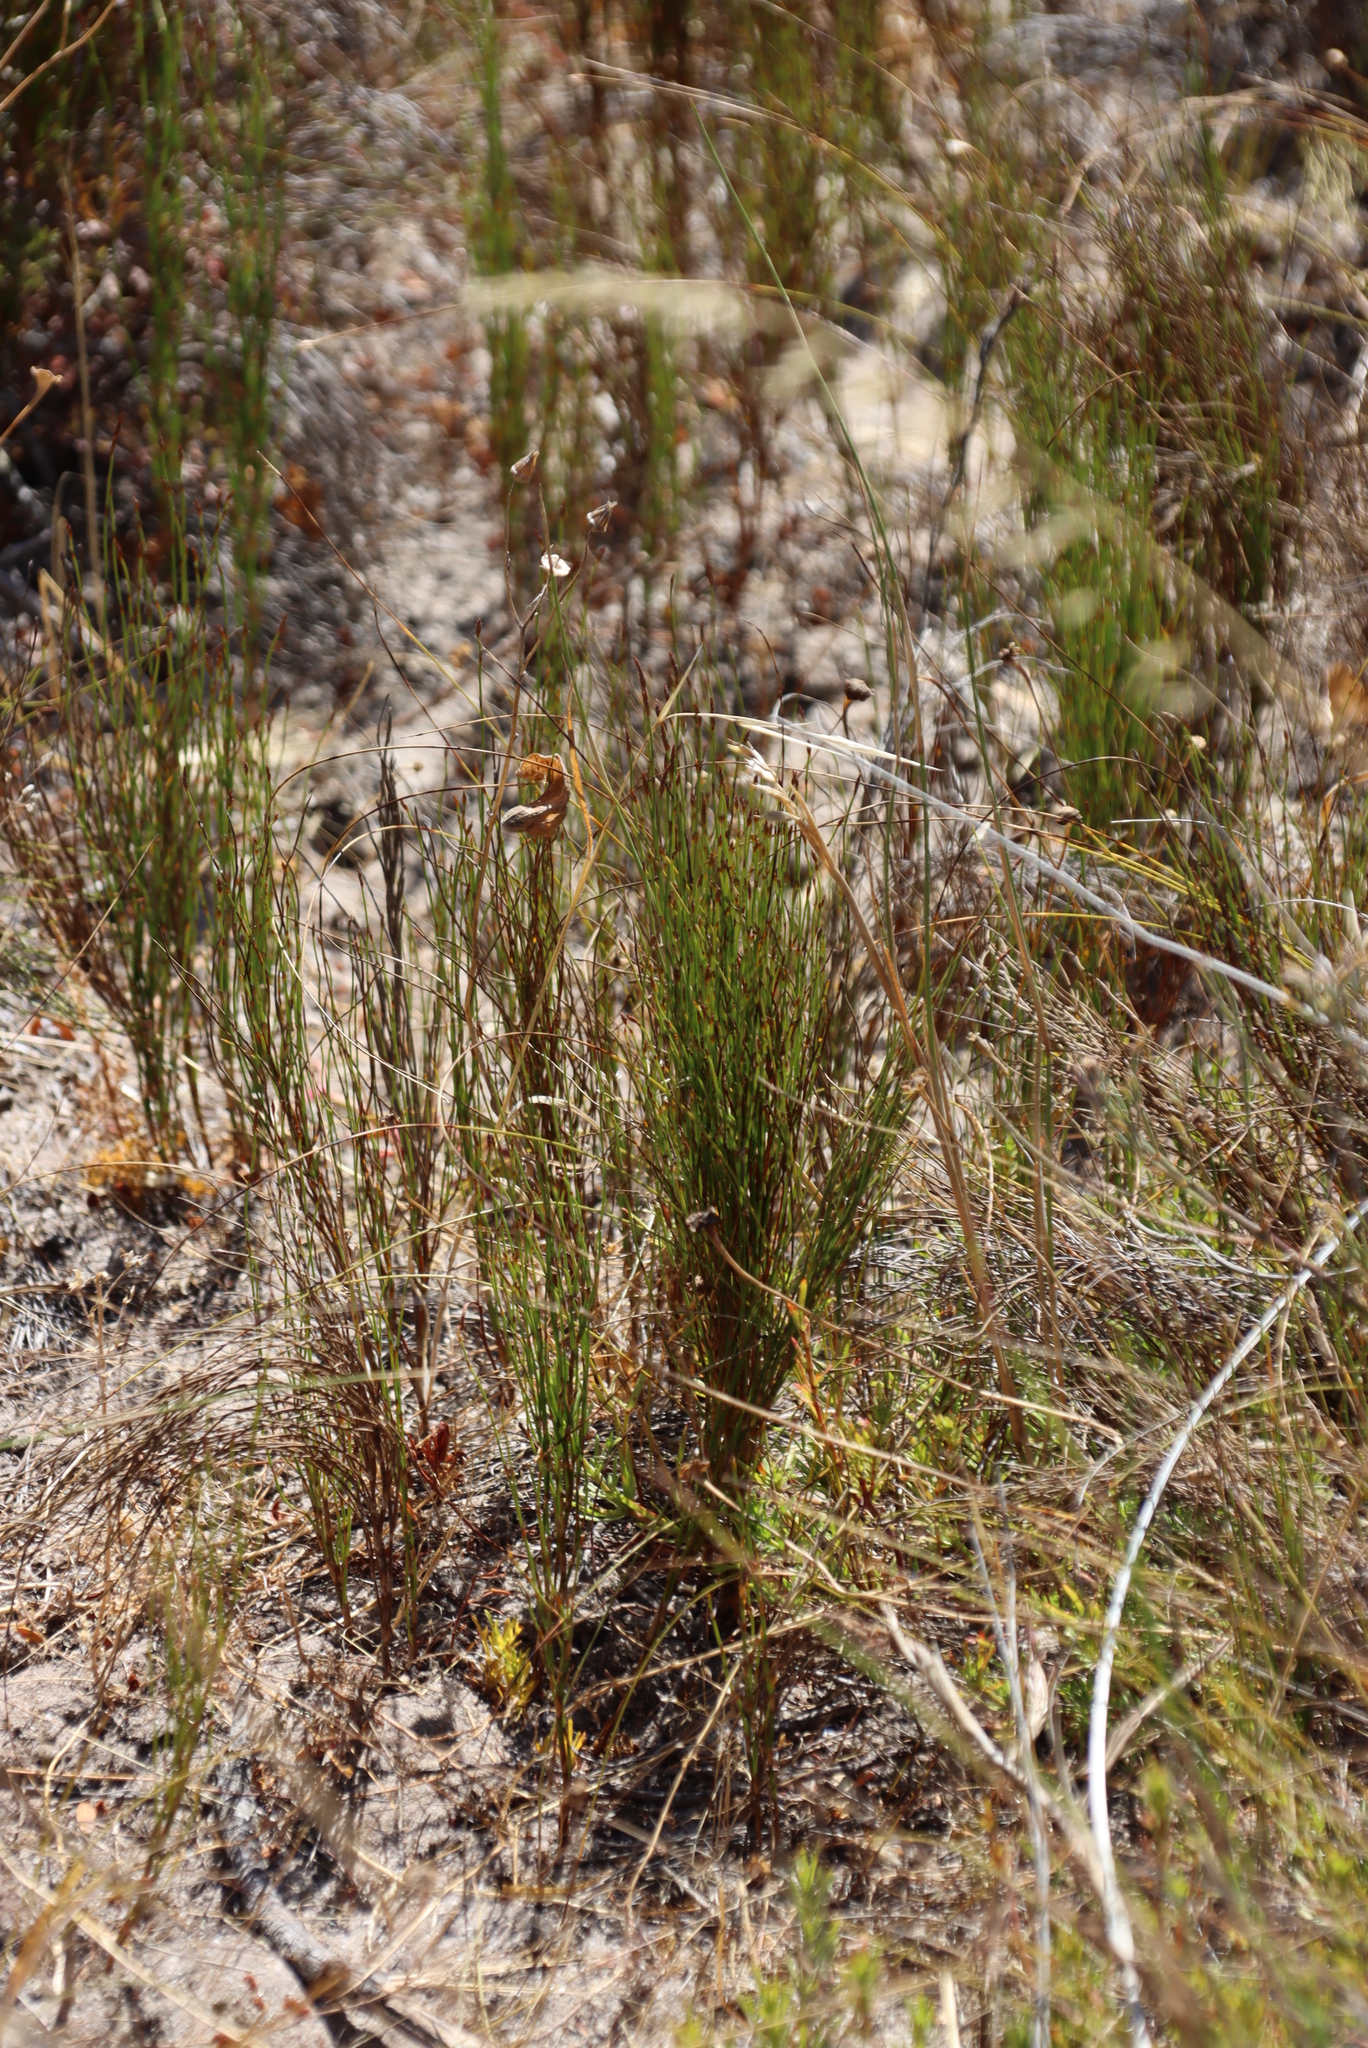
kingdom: Plantae
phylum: Tracheophyta
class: Liliopsida
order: Poales
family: Restionaceae
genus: Restio
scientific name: Restio eleocharis
